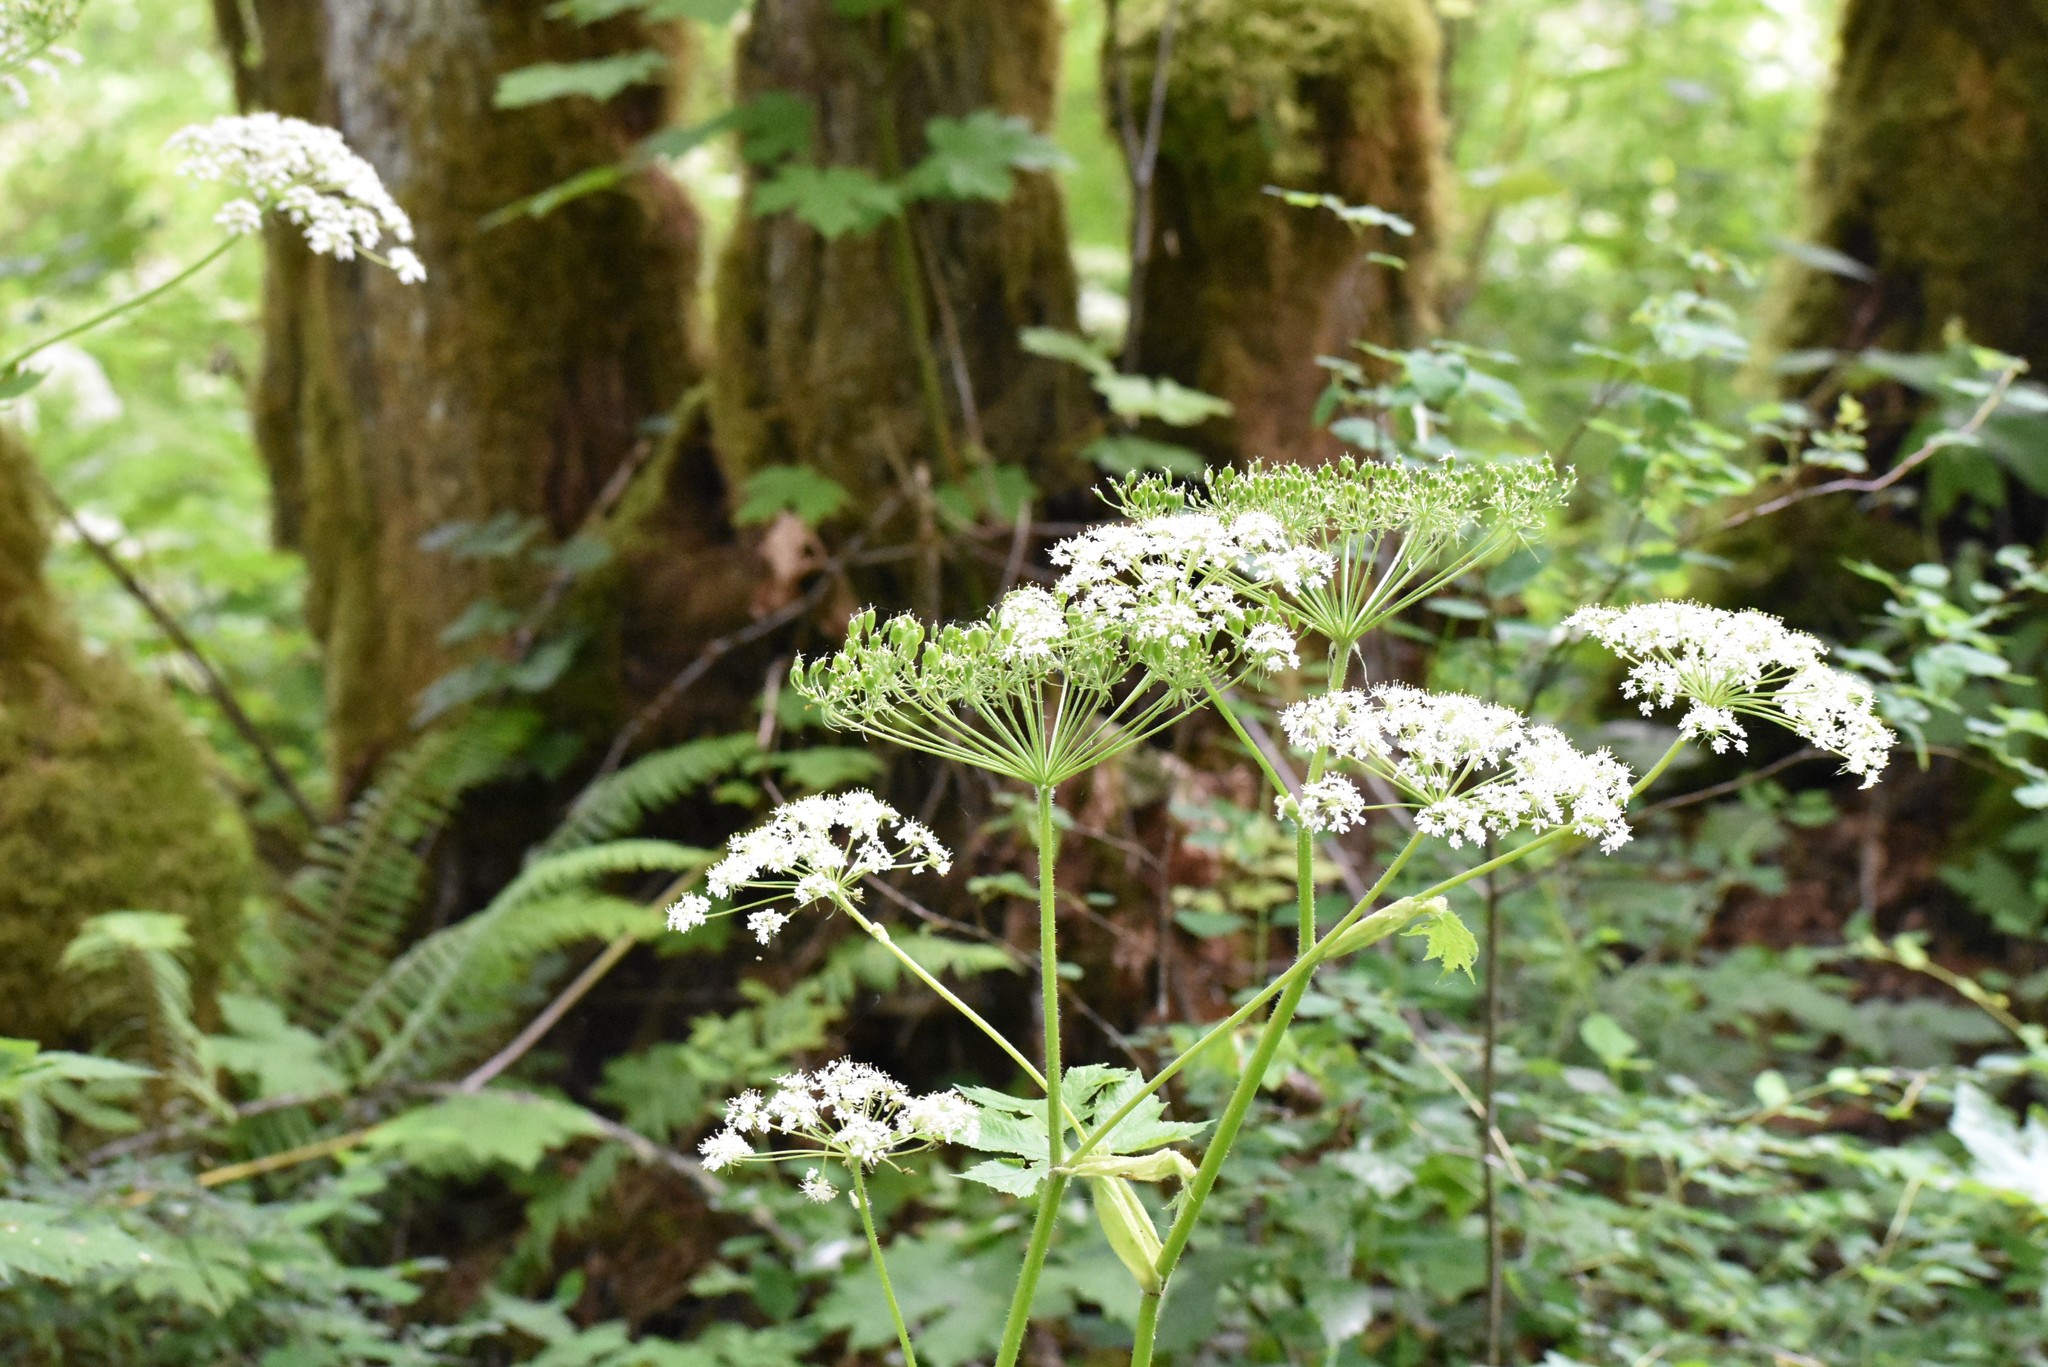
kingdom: Plantae
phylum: Tracheophyta
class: Magnoliopsida
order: Apiales
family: Apiaceae
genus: Heracleum
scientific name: Heracleum maximum
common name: American cow parsnip
